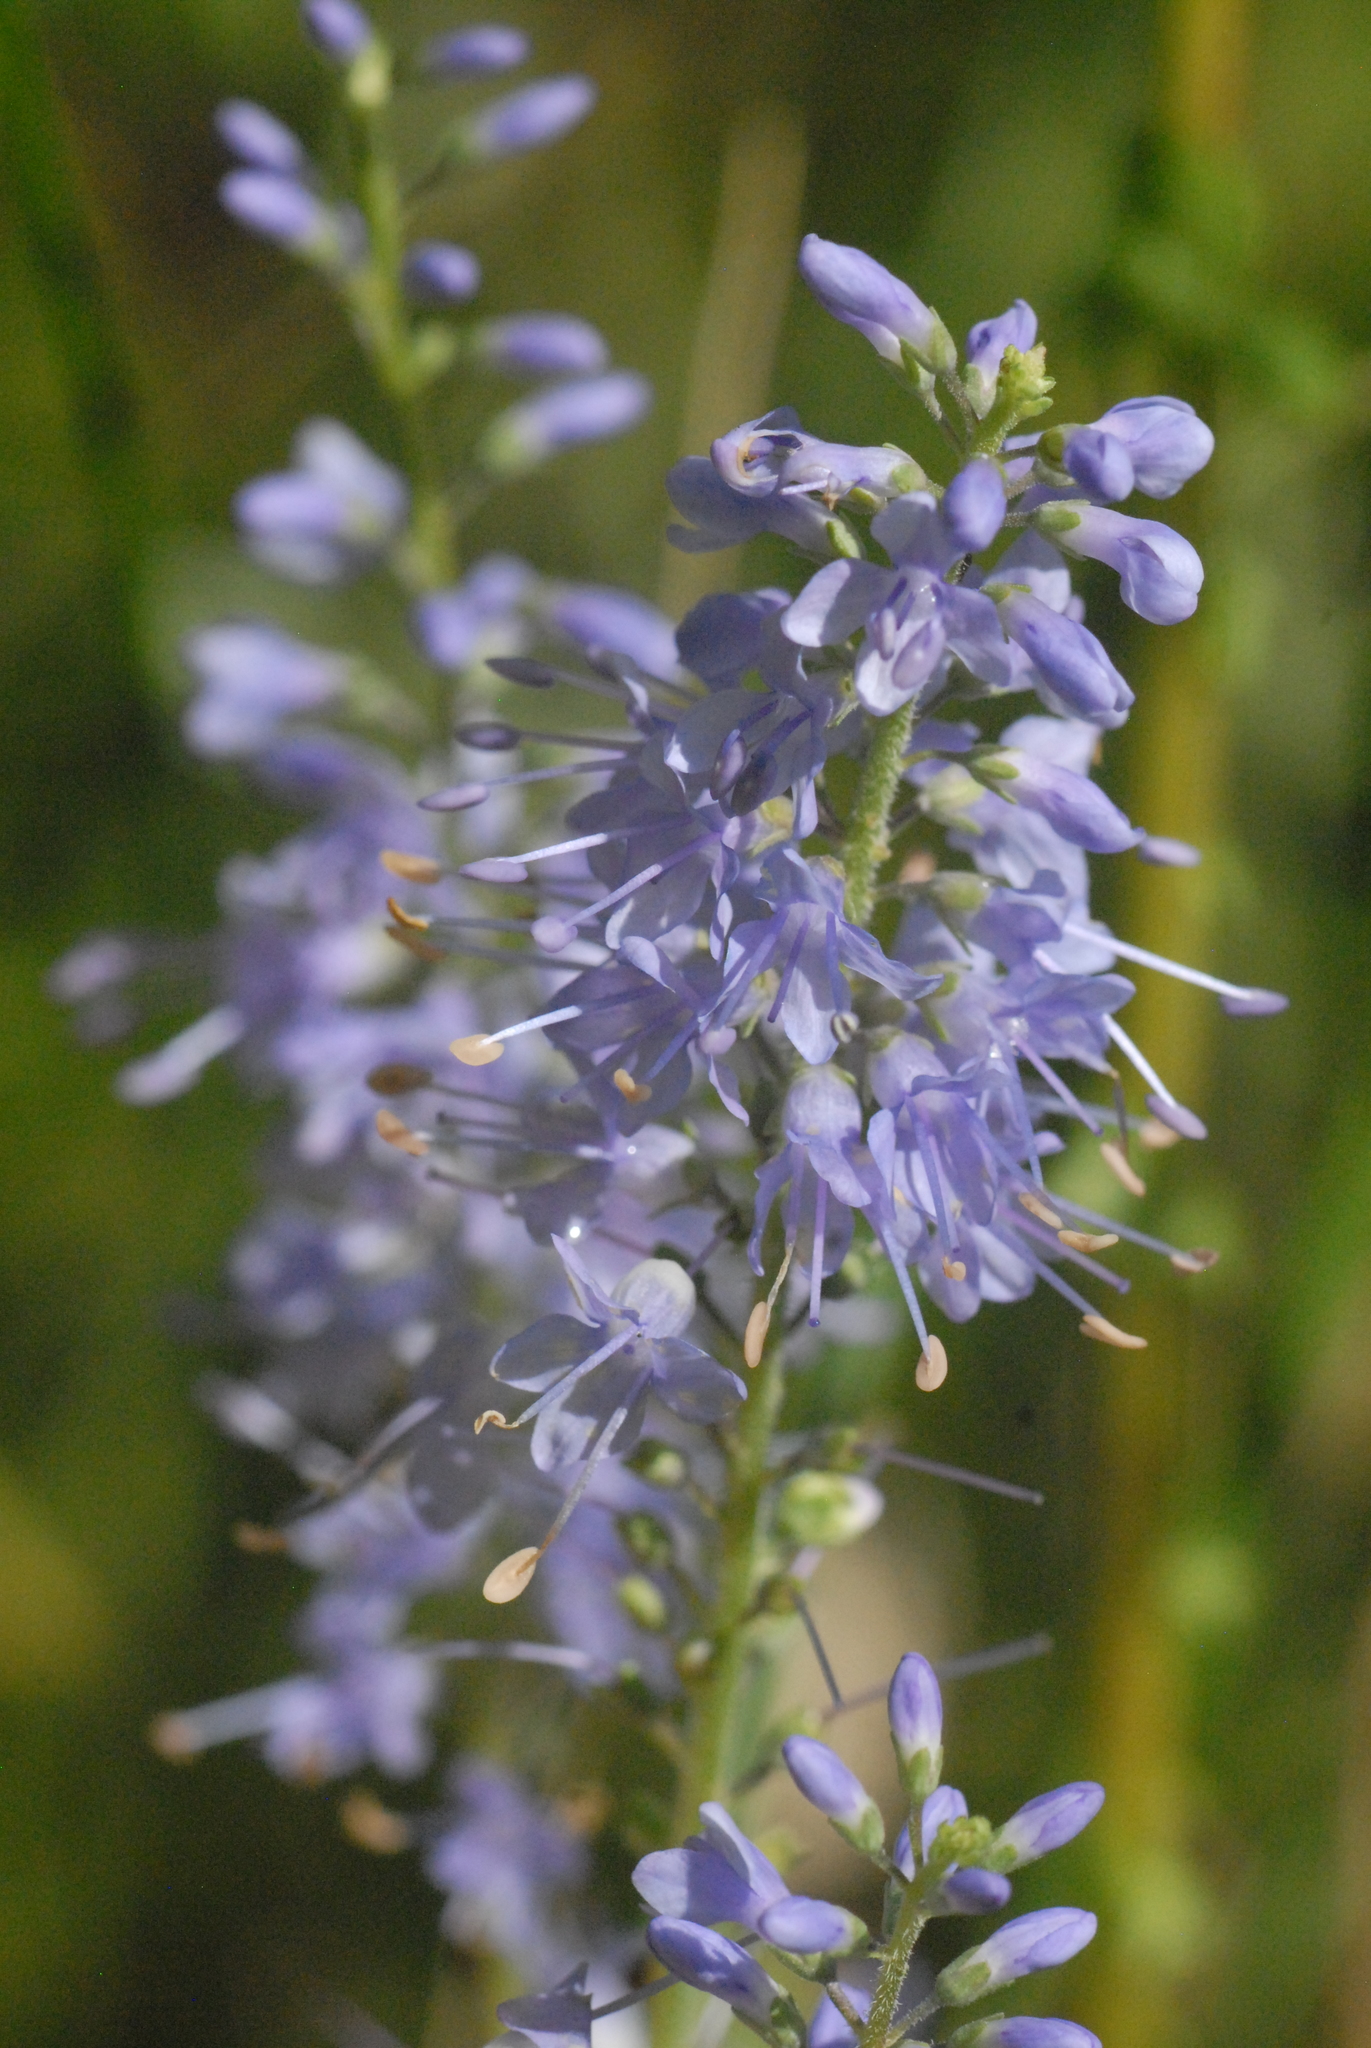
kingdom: Plantae
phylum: Tracheophyta
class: Magnoliopsida
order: Lamiales
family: Plantaginaceae
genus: Veronica
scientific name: Veronica longifolia
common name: Garden speedwell
